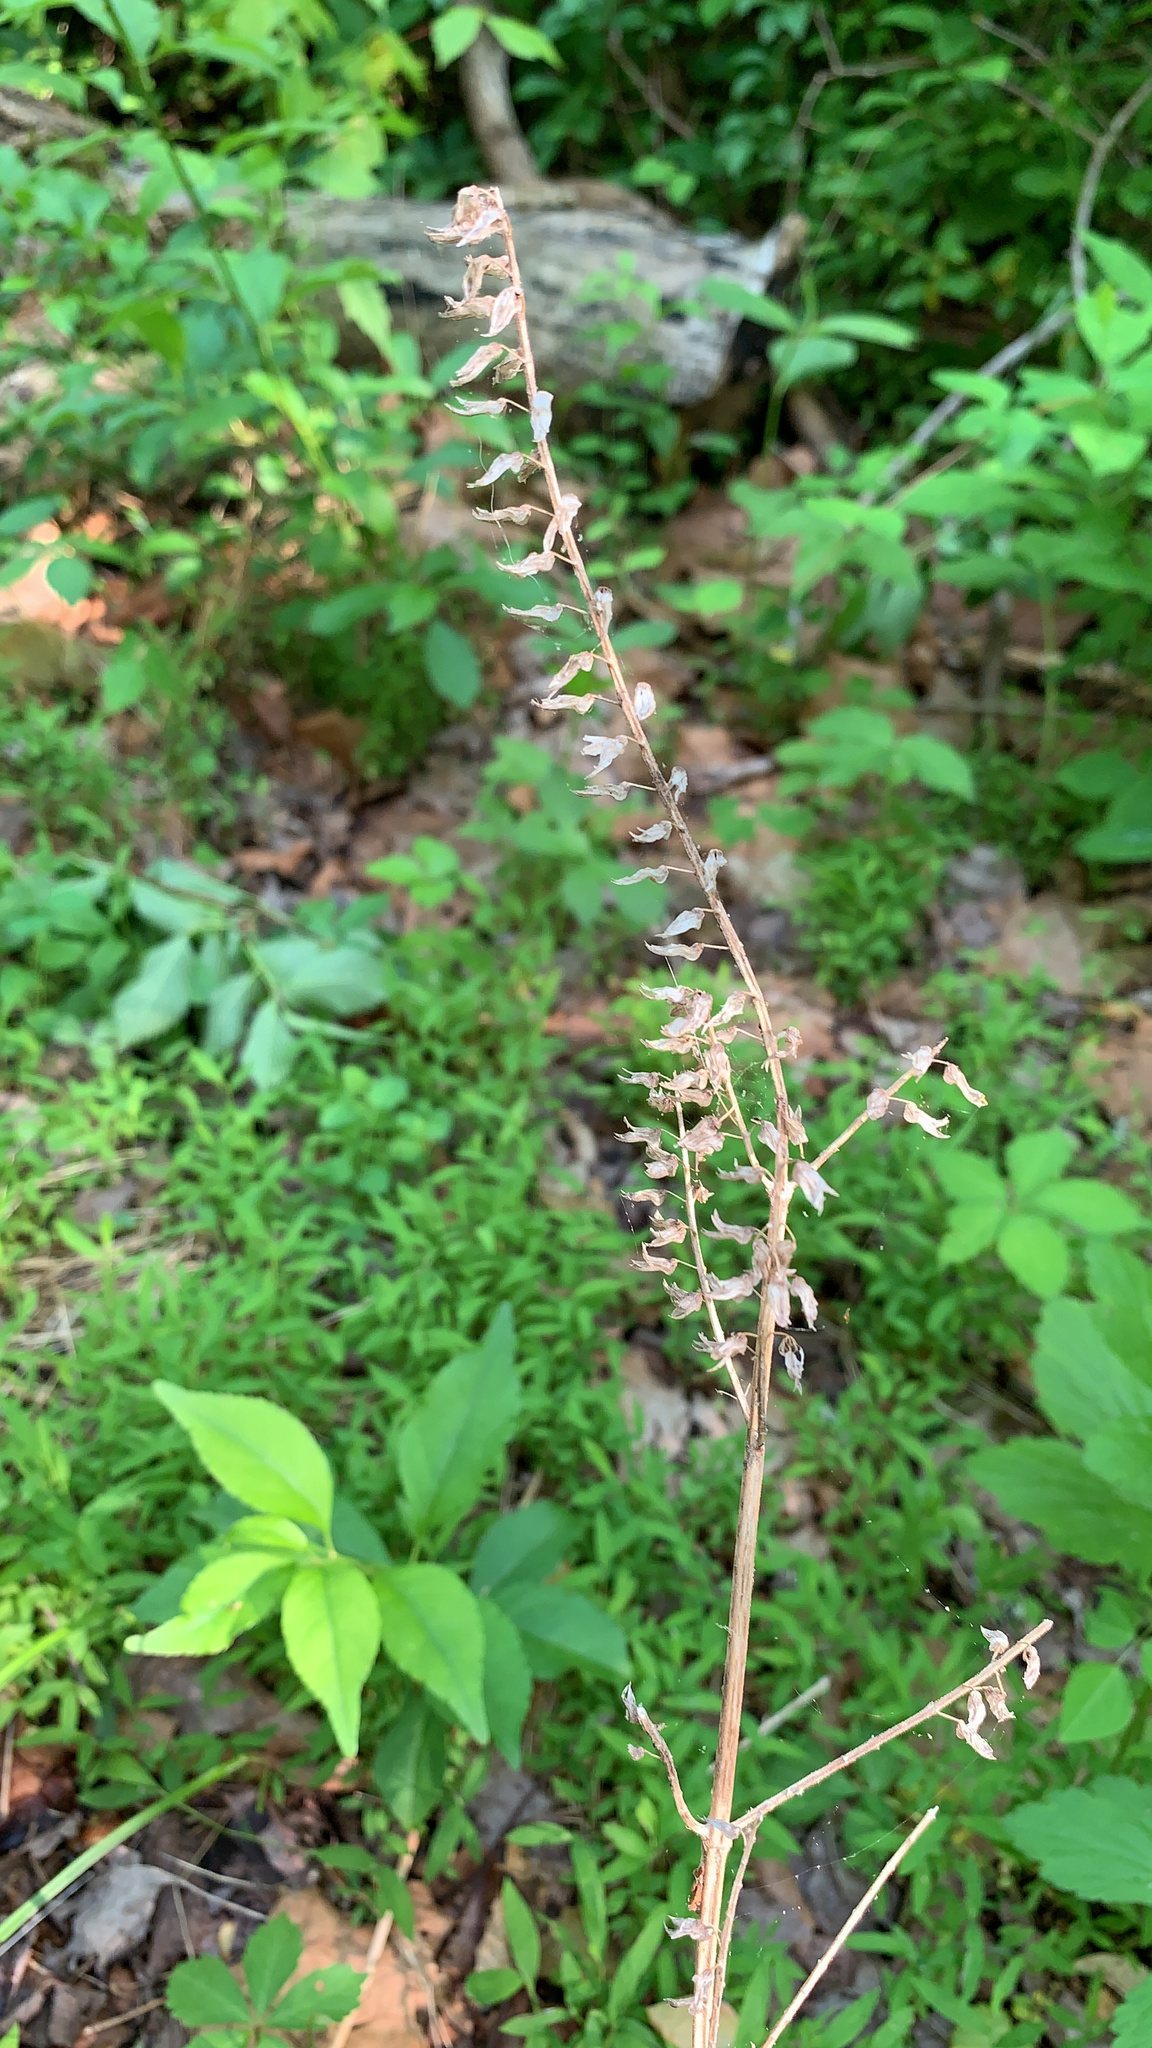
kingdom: Plantae
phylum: Tracheophyta
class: Magnoliopsida
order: Lamiales
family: Lamiaceae
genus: Perilla
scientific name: Perilla frutescens
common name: Perilla
